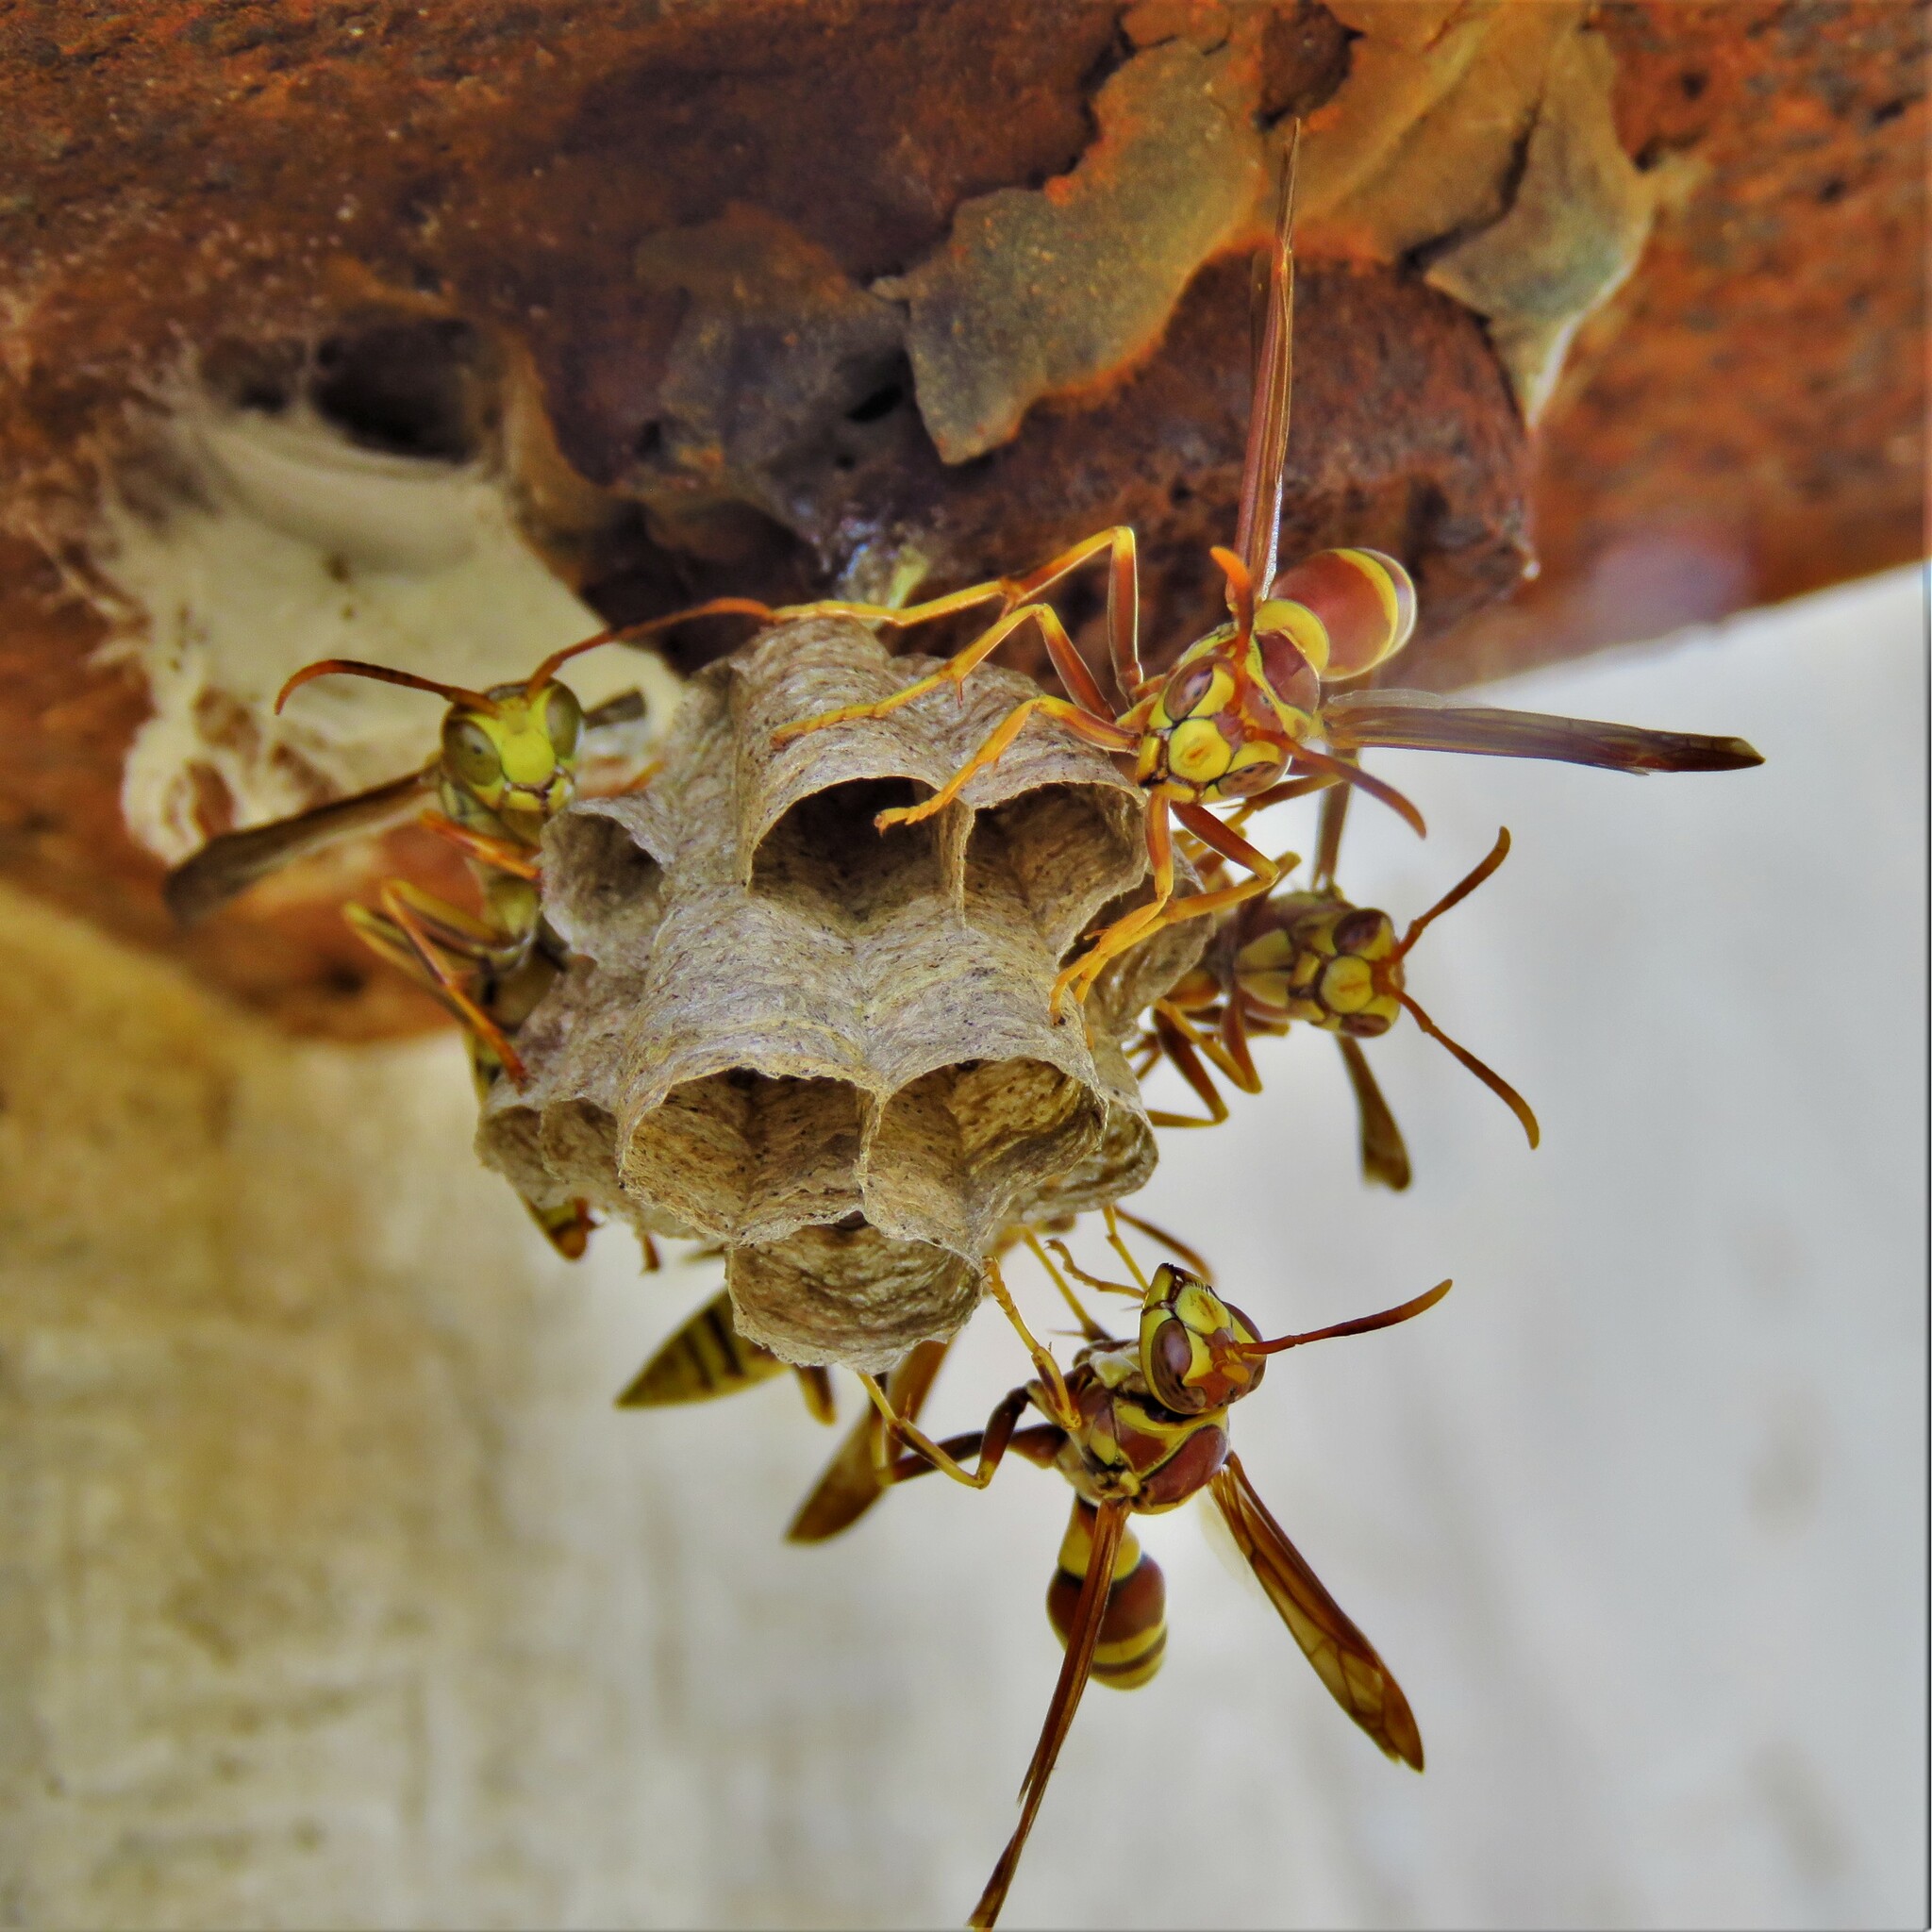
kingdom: Animalia
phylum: Arthropoda
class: Insecta
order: Hymenoptera
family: Eumenidae
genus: Polistes
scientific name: Polistes exclamans
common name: Paper wasp
